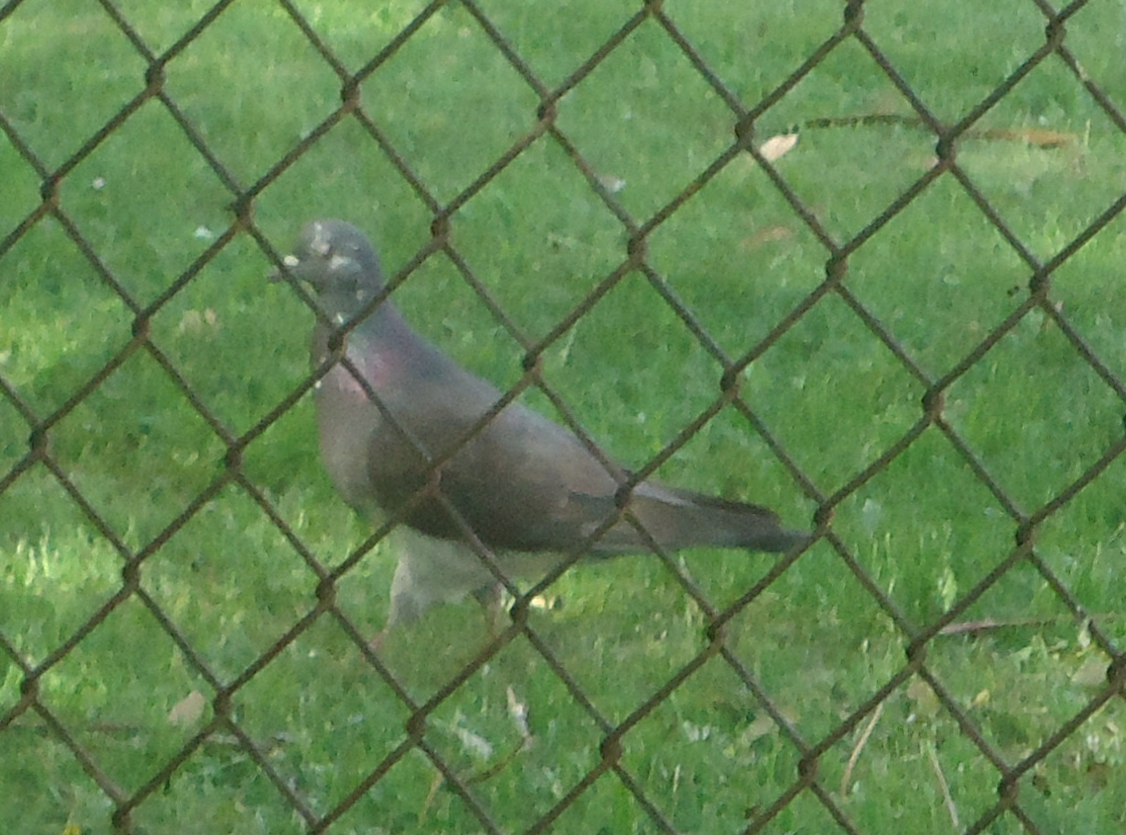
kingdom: Animalia
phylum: Chordata
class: Aves
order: Columbiformes
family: Columbidae
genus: Columba
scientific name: Columba livia
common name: Rock pigeon
